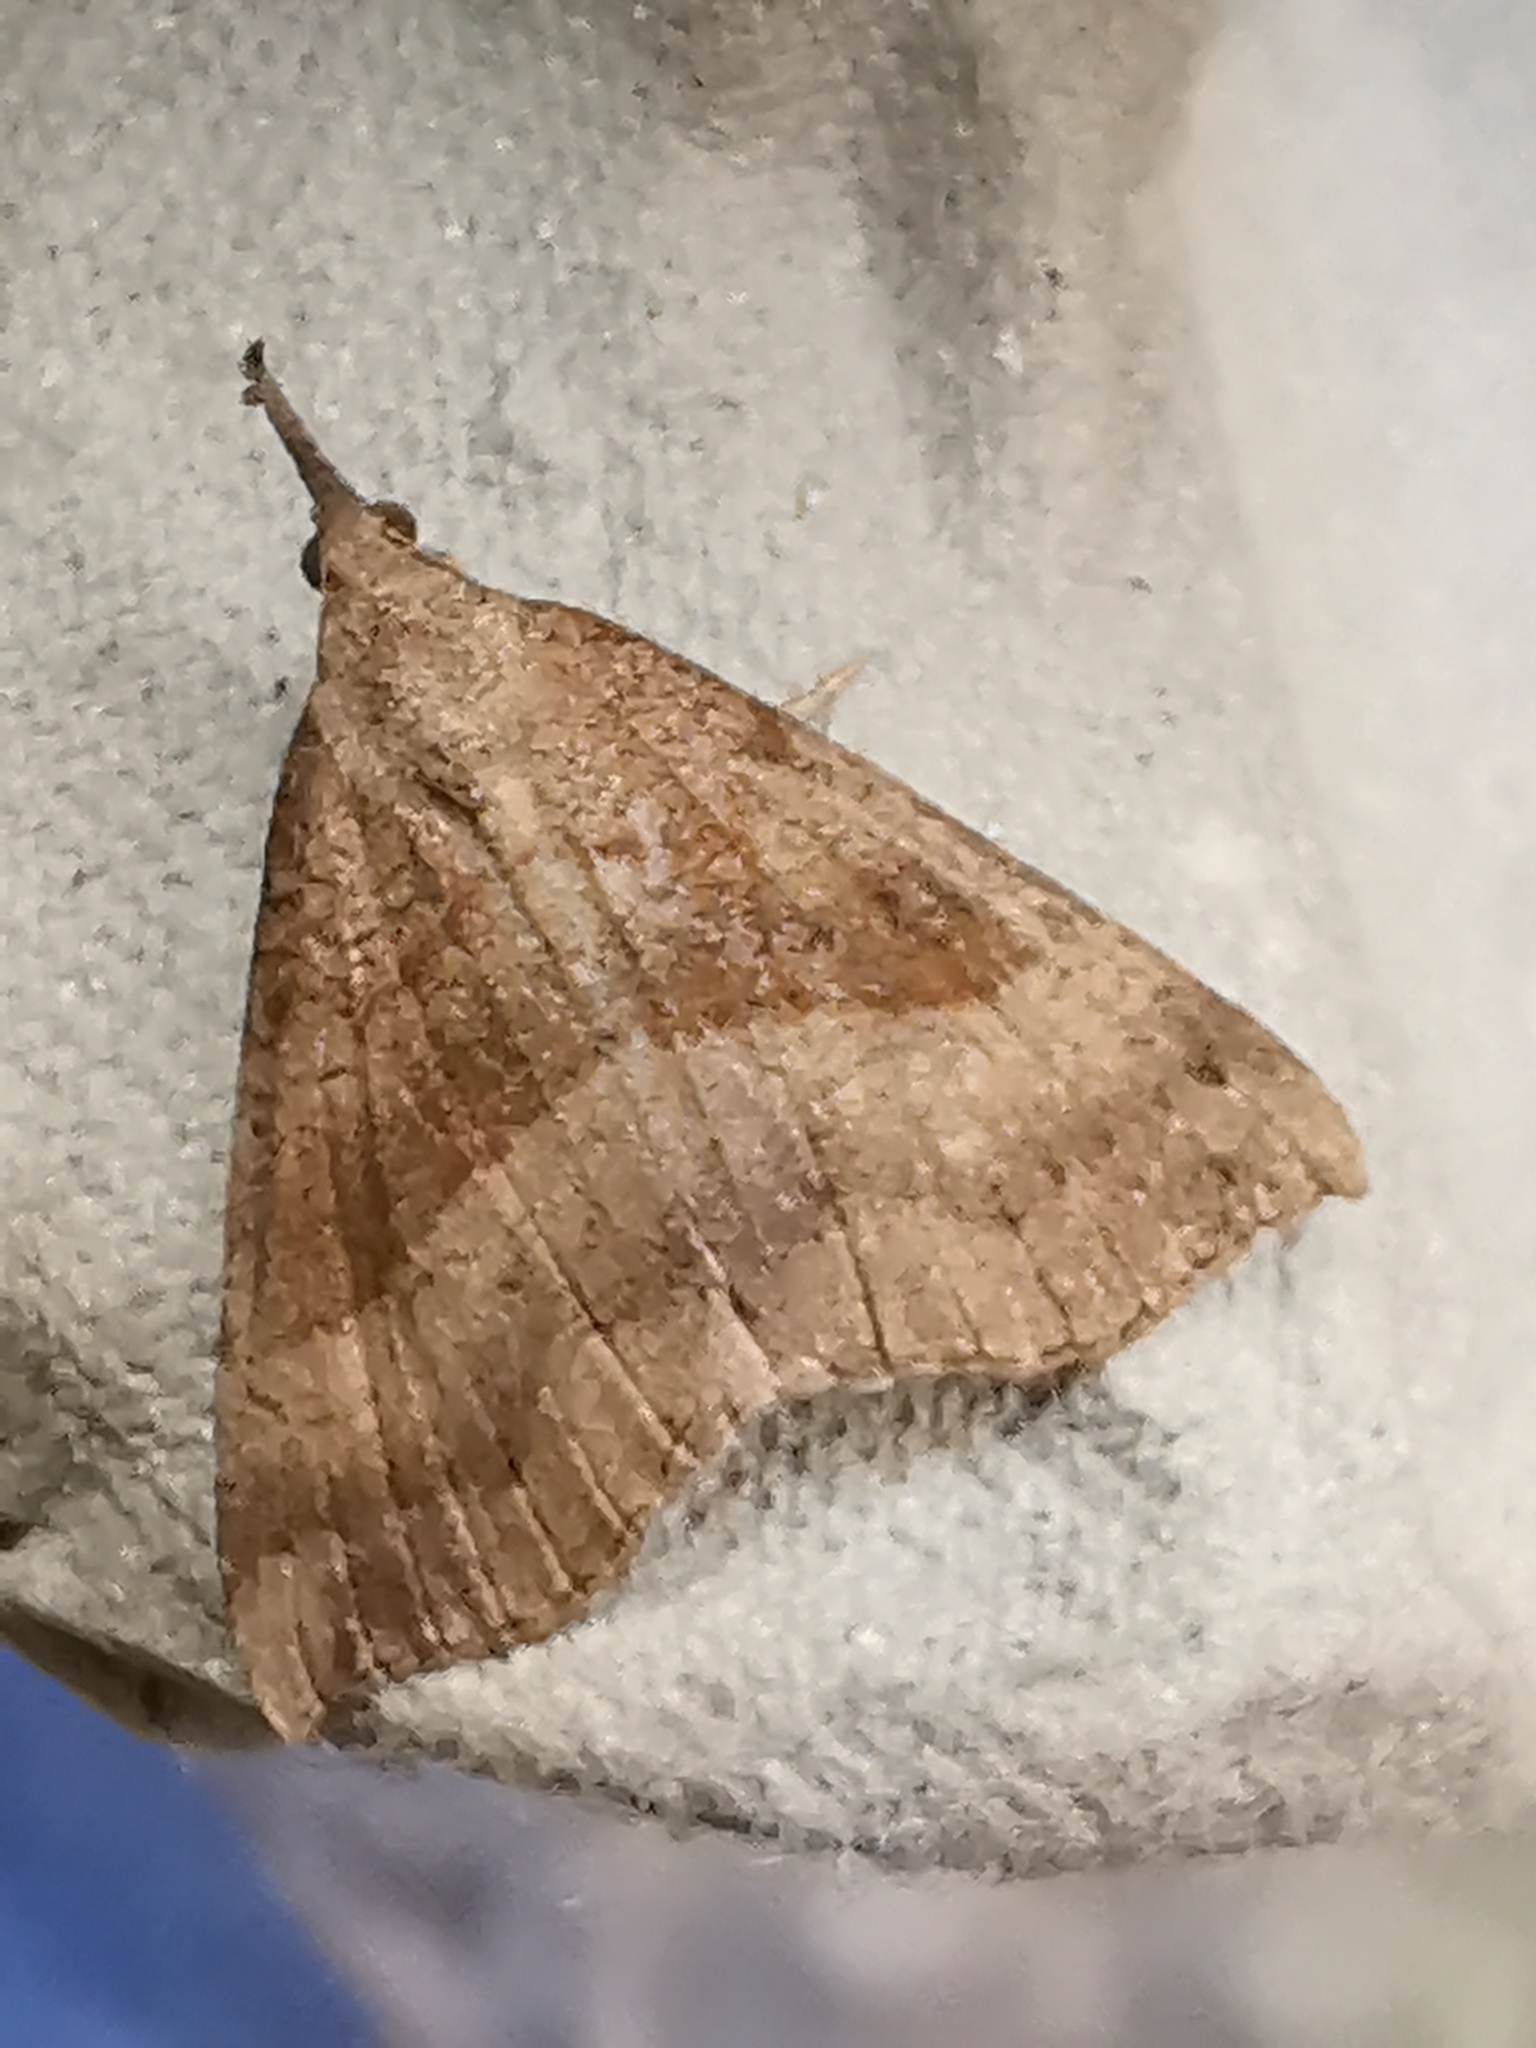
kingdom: Animalia
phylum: Arthropoda
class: Insecta
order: Lepidoptera
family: Erebidae
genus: Hypena
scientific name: Hypena proboscidalis
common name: Snout
